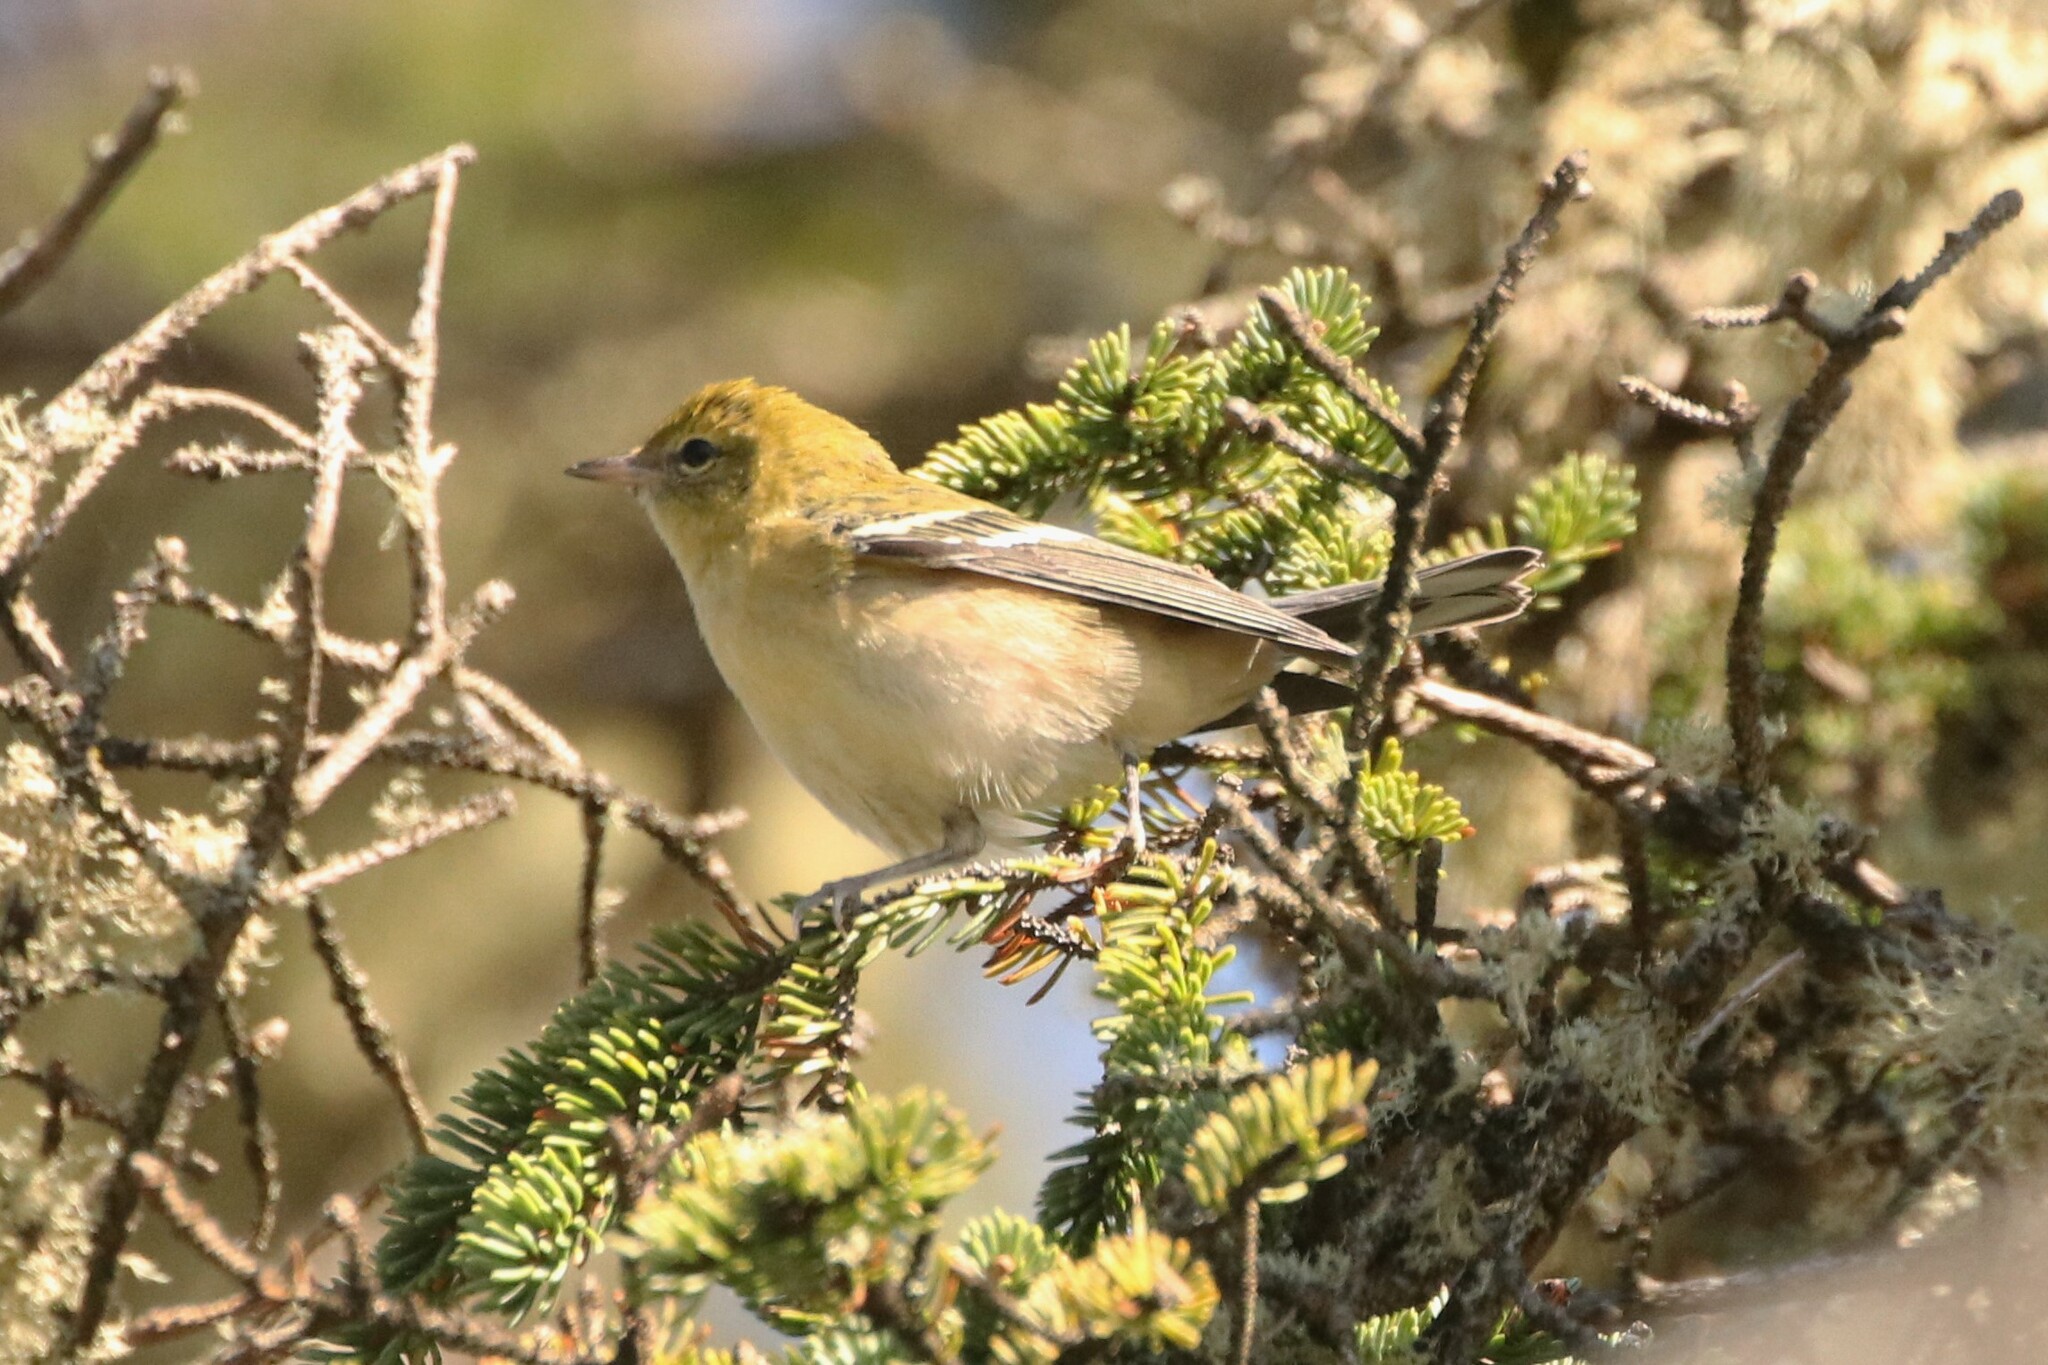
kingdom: Animalia
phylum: Chordata
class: Aves
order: Passeriformes
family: Parulidae
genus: Setophaga
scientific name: Setophaga castanea
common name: Bay-breasted warbler
